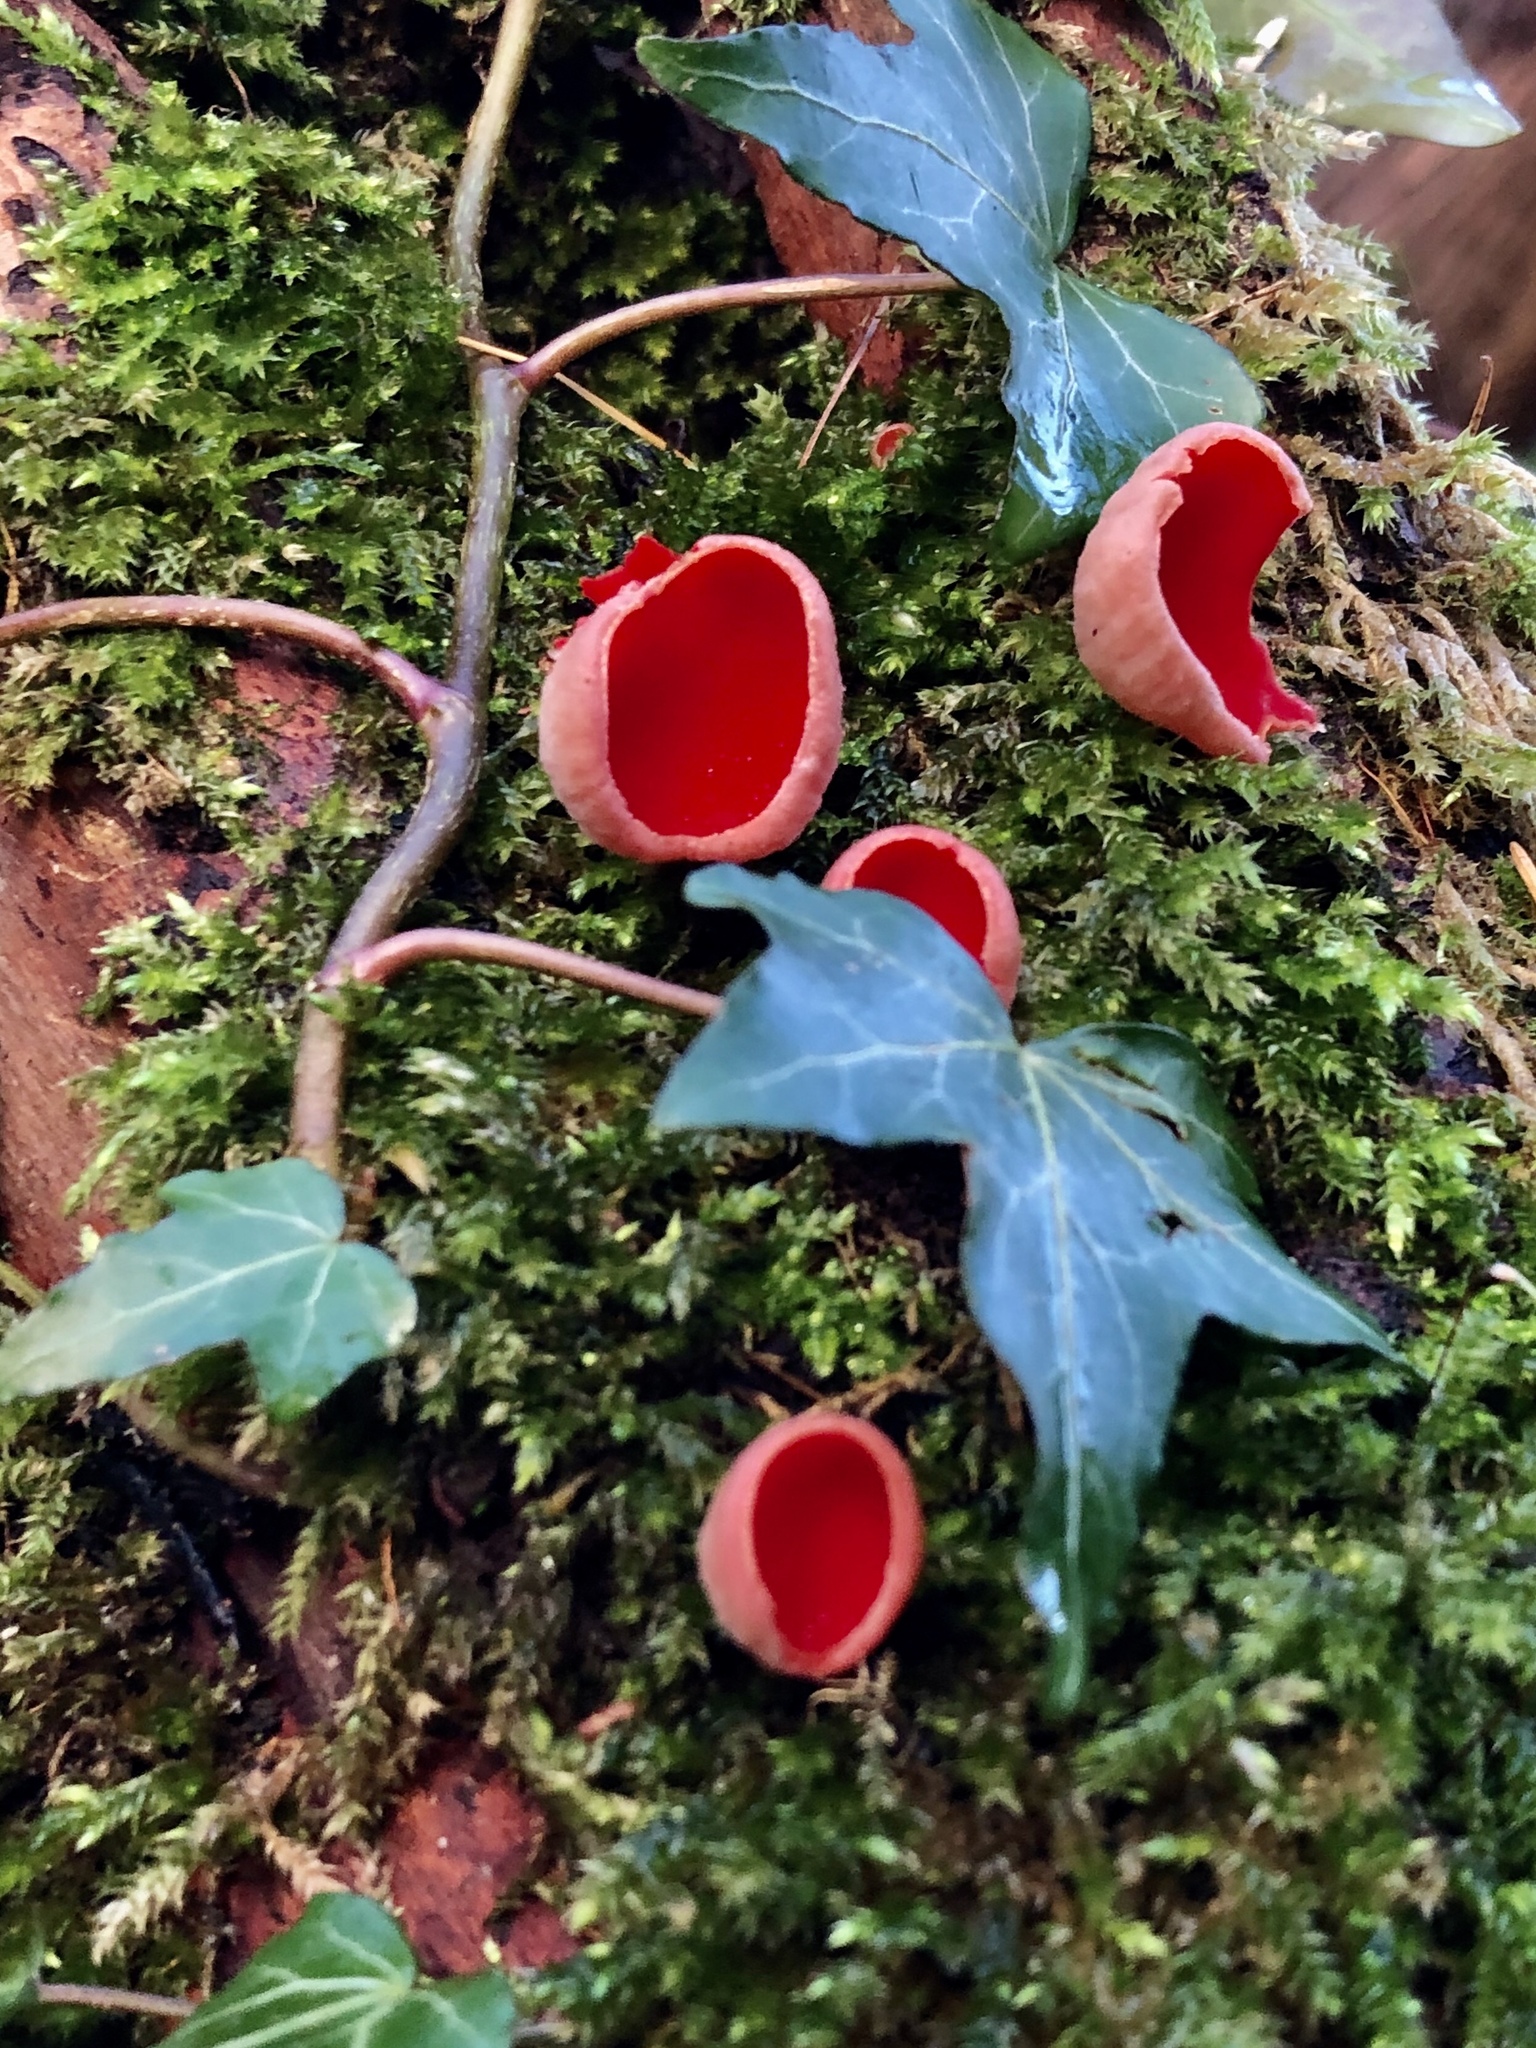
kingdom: Fungi
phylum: Ascomycota
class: Pezizomycetes
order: Pezizales
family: Sarcoscyphaceae
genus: Sarcoscypha
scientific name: Sarcoscypha
